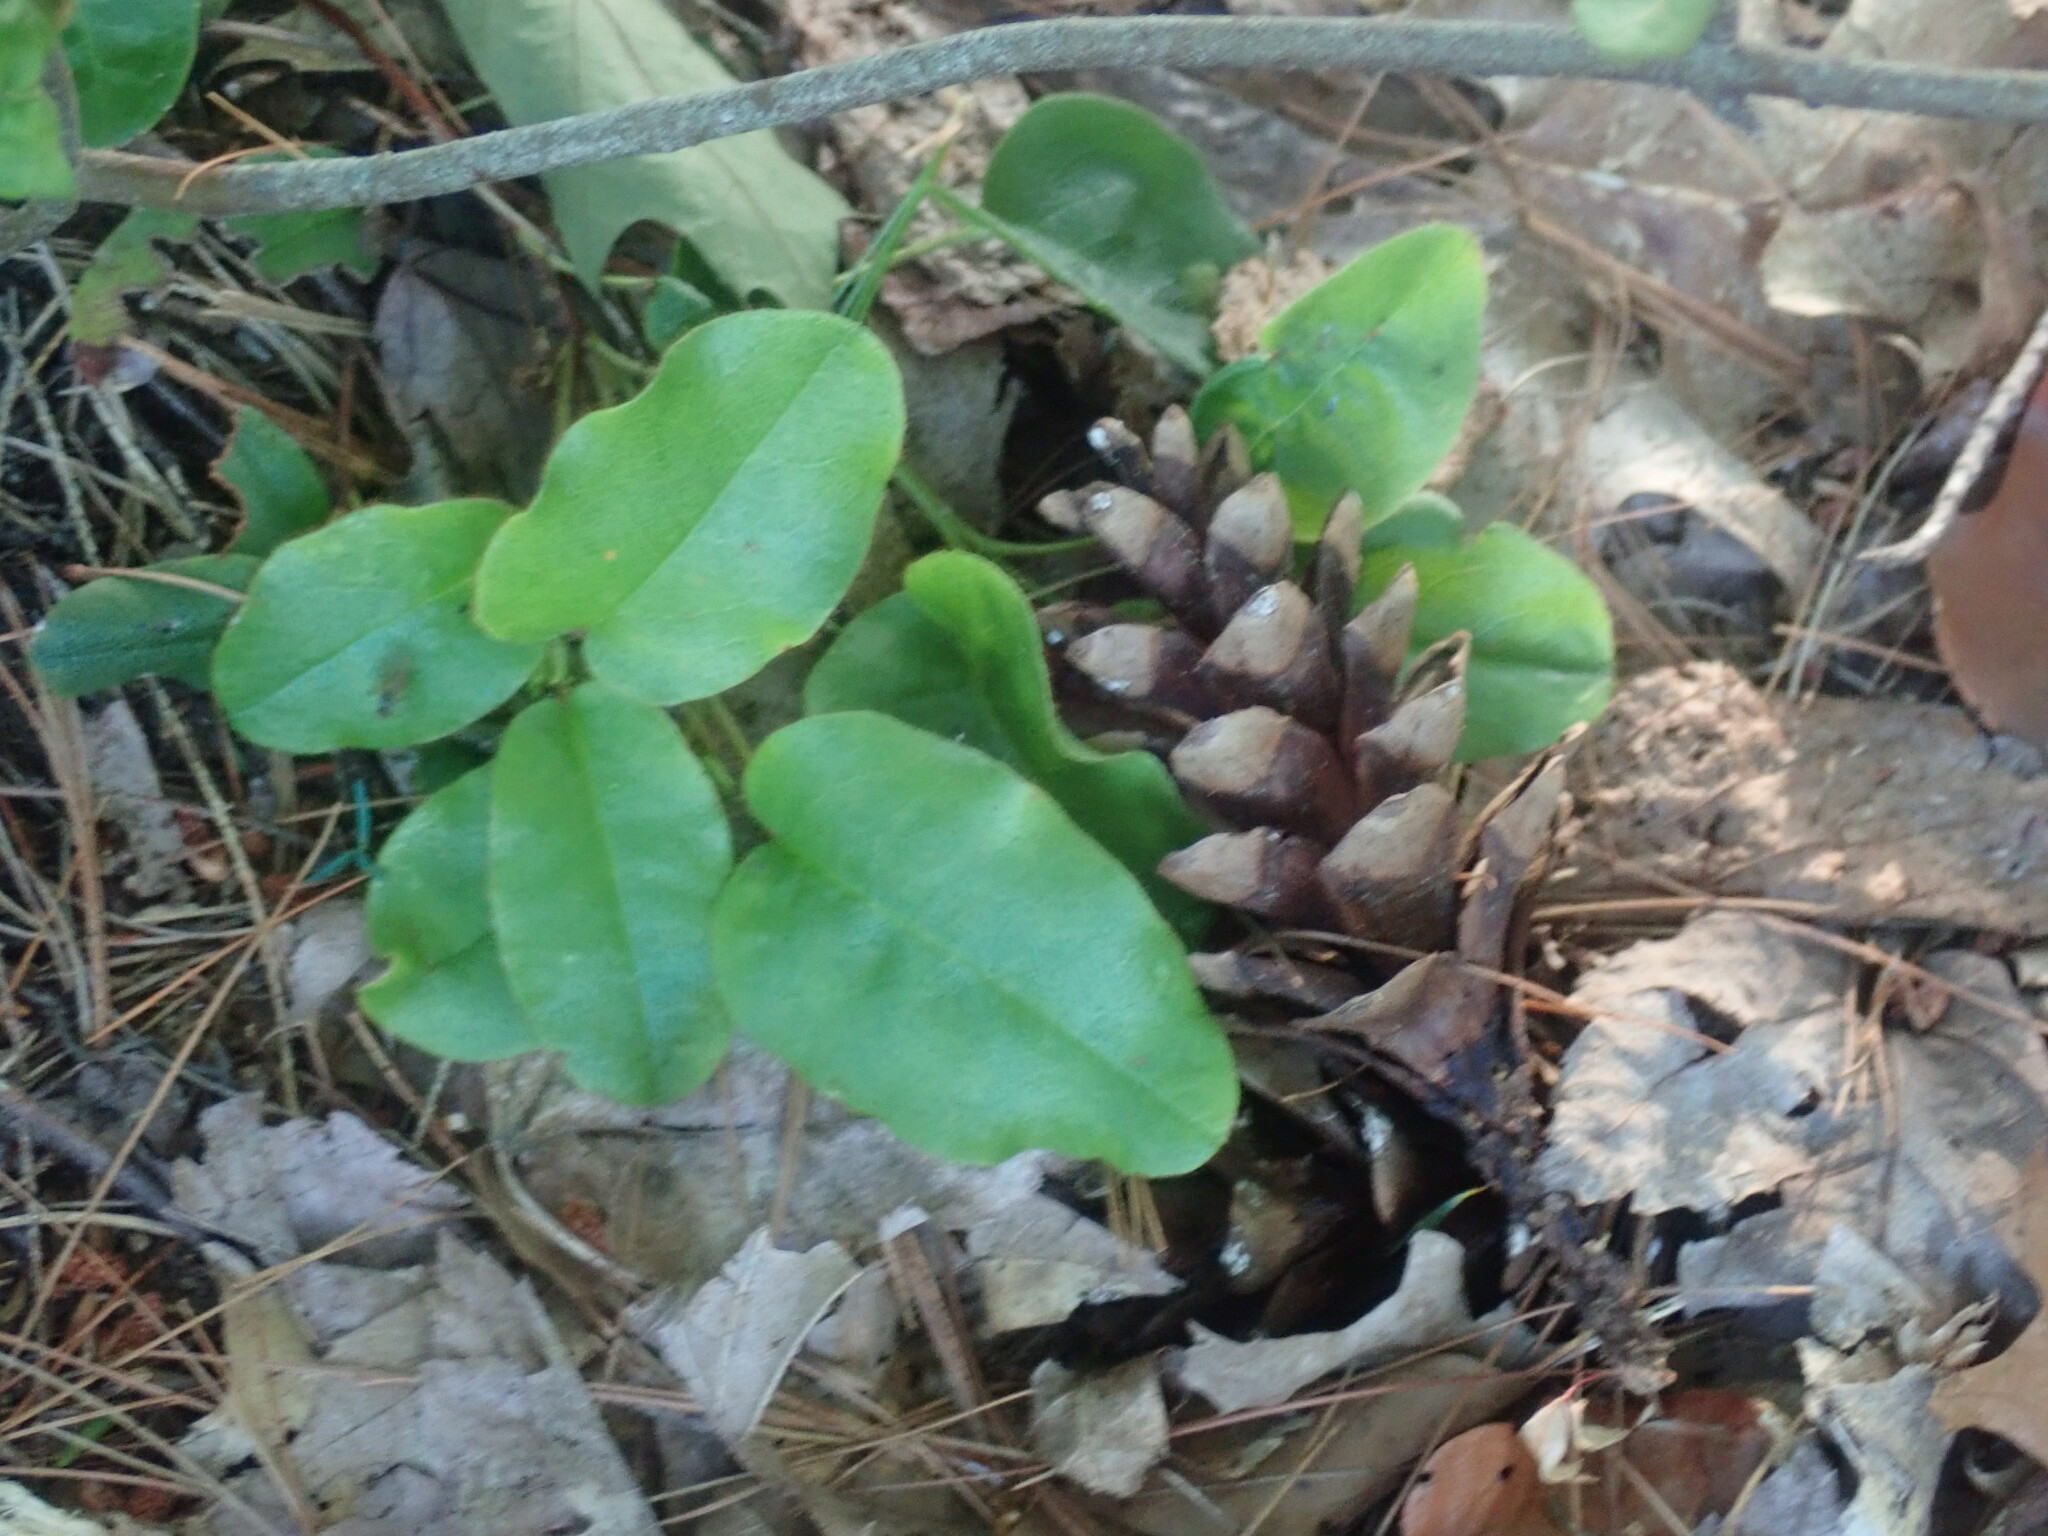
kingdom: Plantae
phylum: Tracheophyta
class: Magnoliopsida
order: Ericales
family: Ericaceae
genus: Epigaea
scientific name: Epigaea repens
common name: Gravelroot
